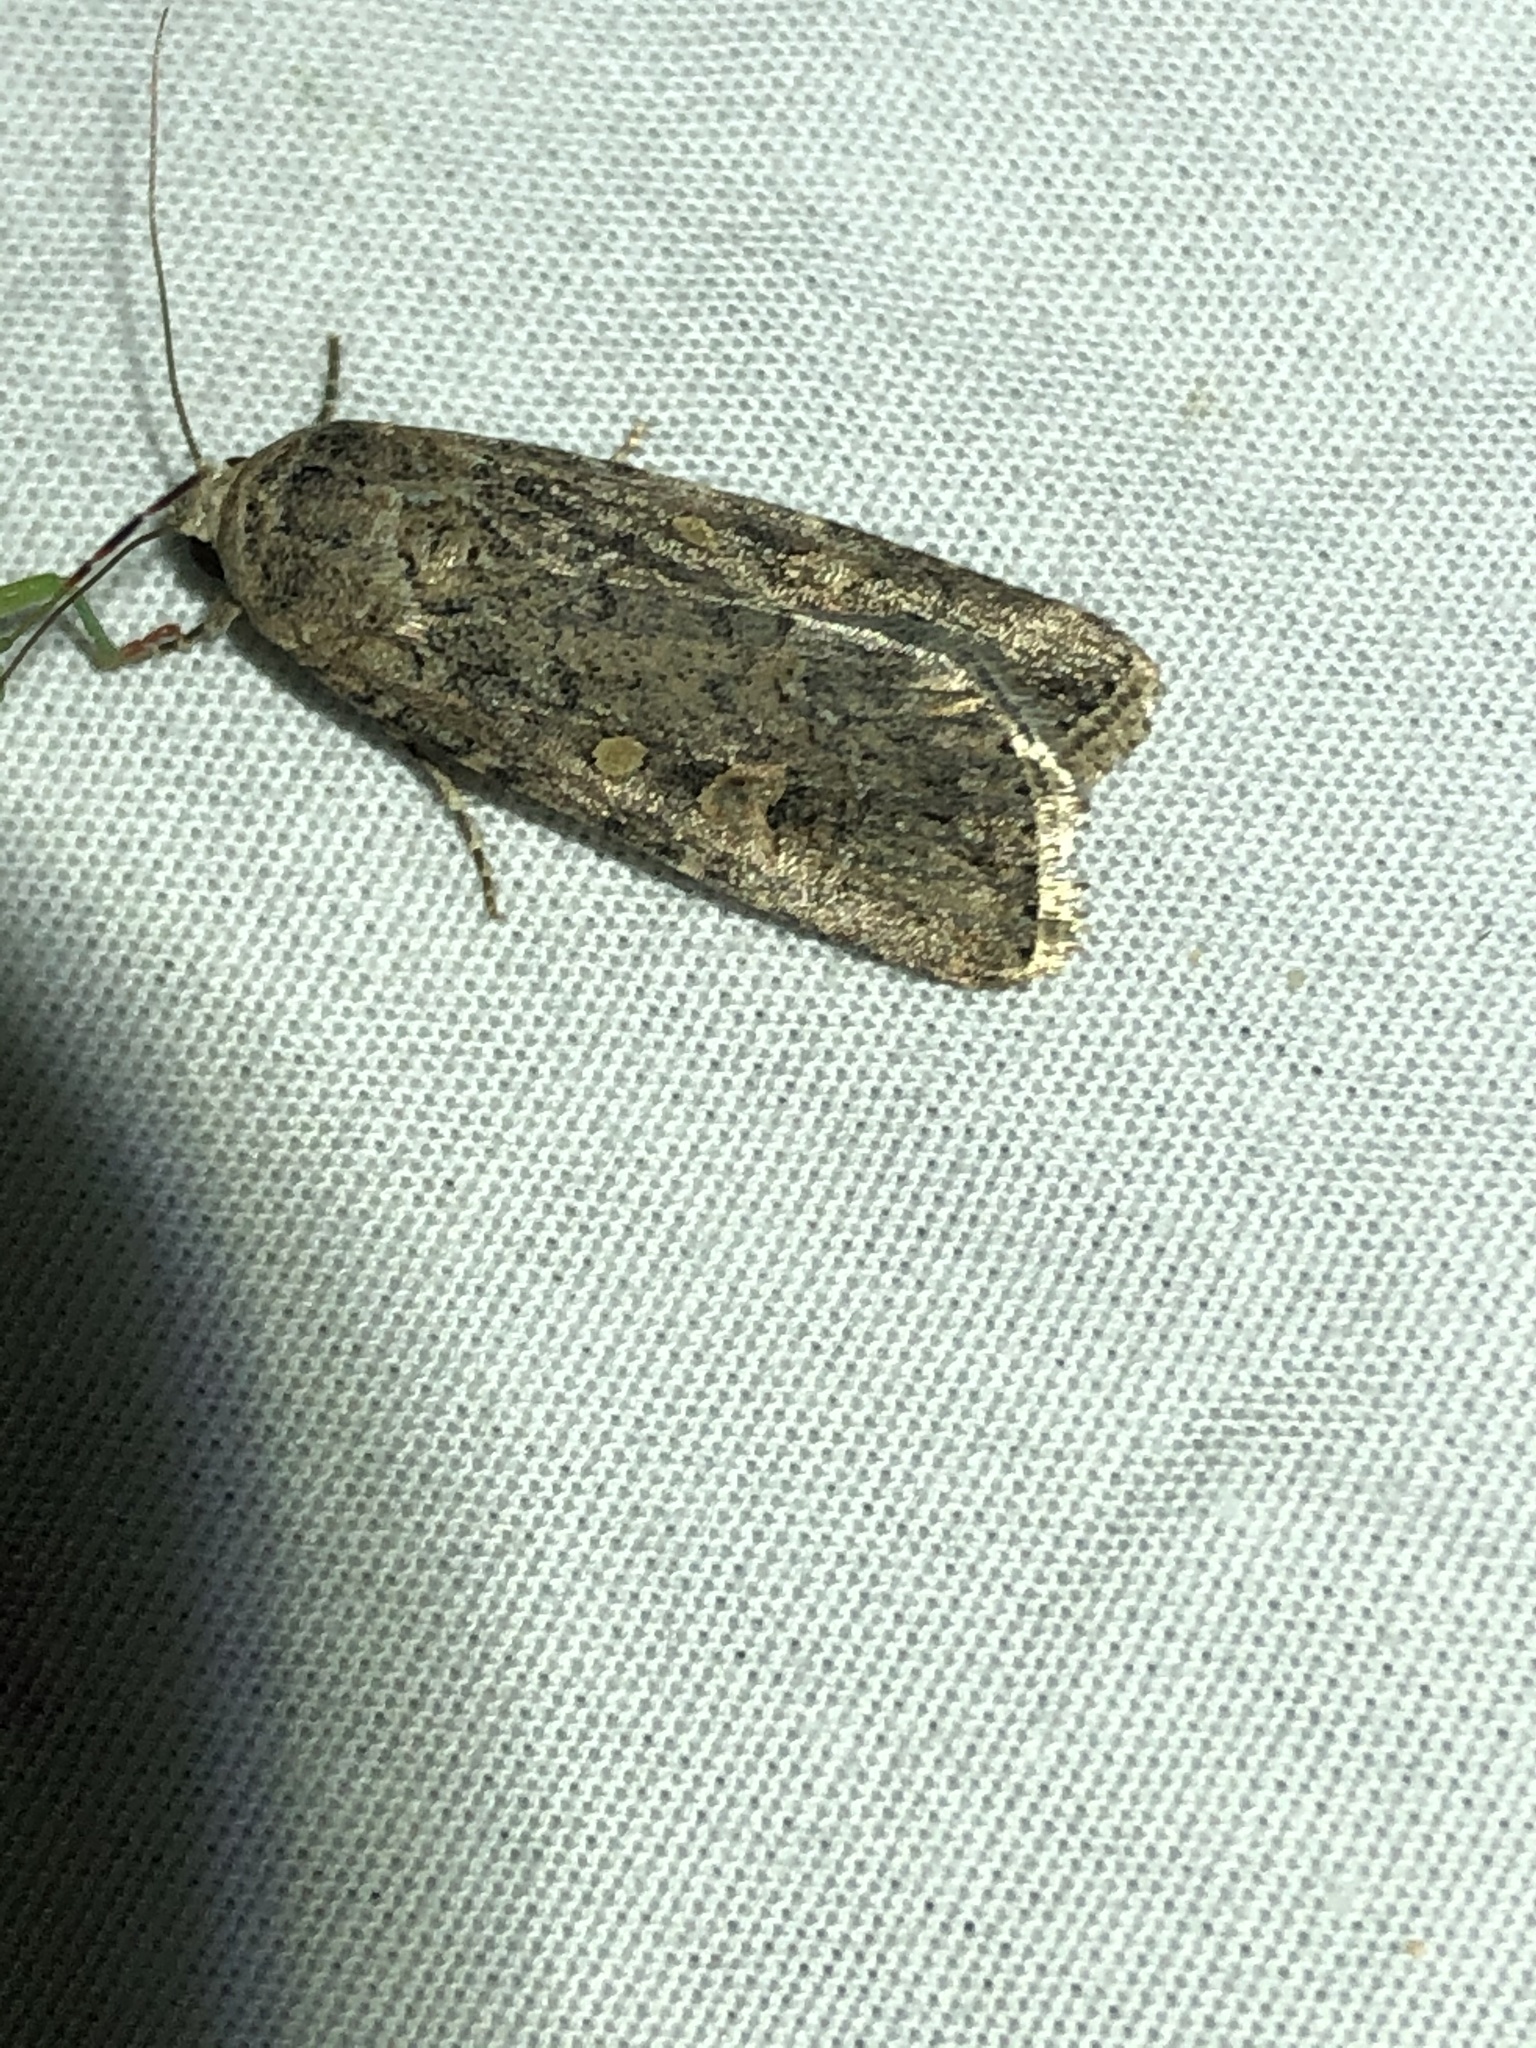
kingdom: Animalia
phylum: Arthropoda
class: Insecta
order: Lepidoptera
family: Noctuidae
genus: Spodoptera
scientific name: Spodoptera exigua
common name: Beet armyworm
